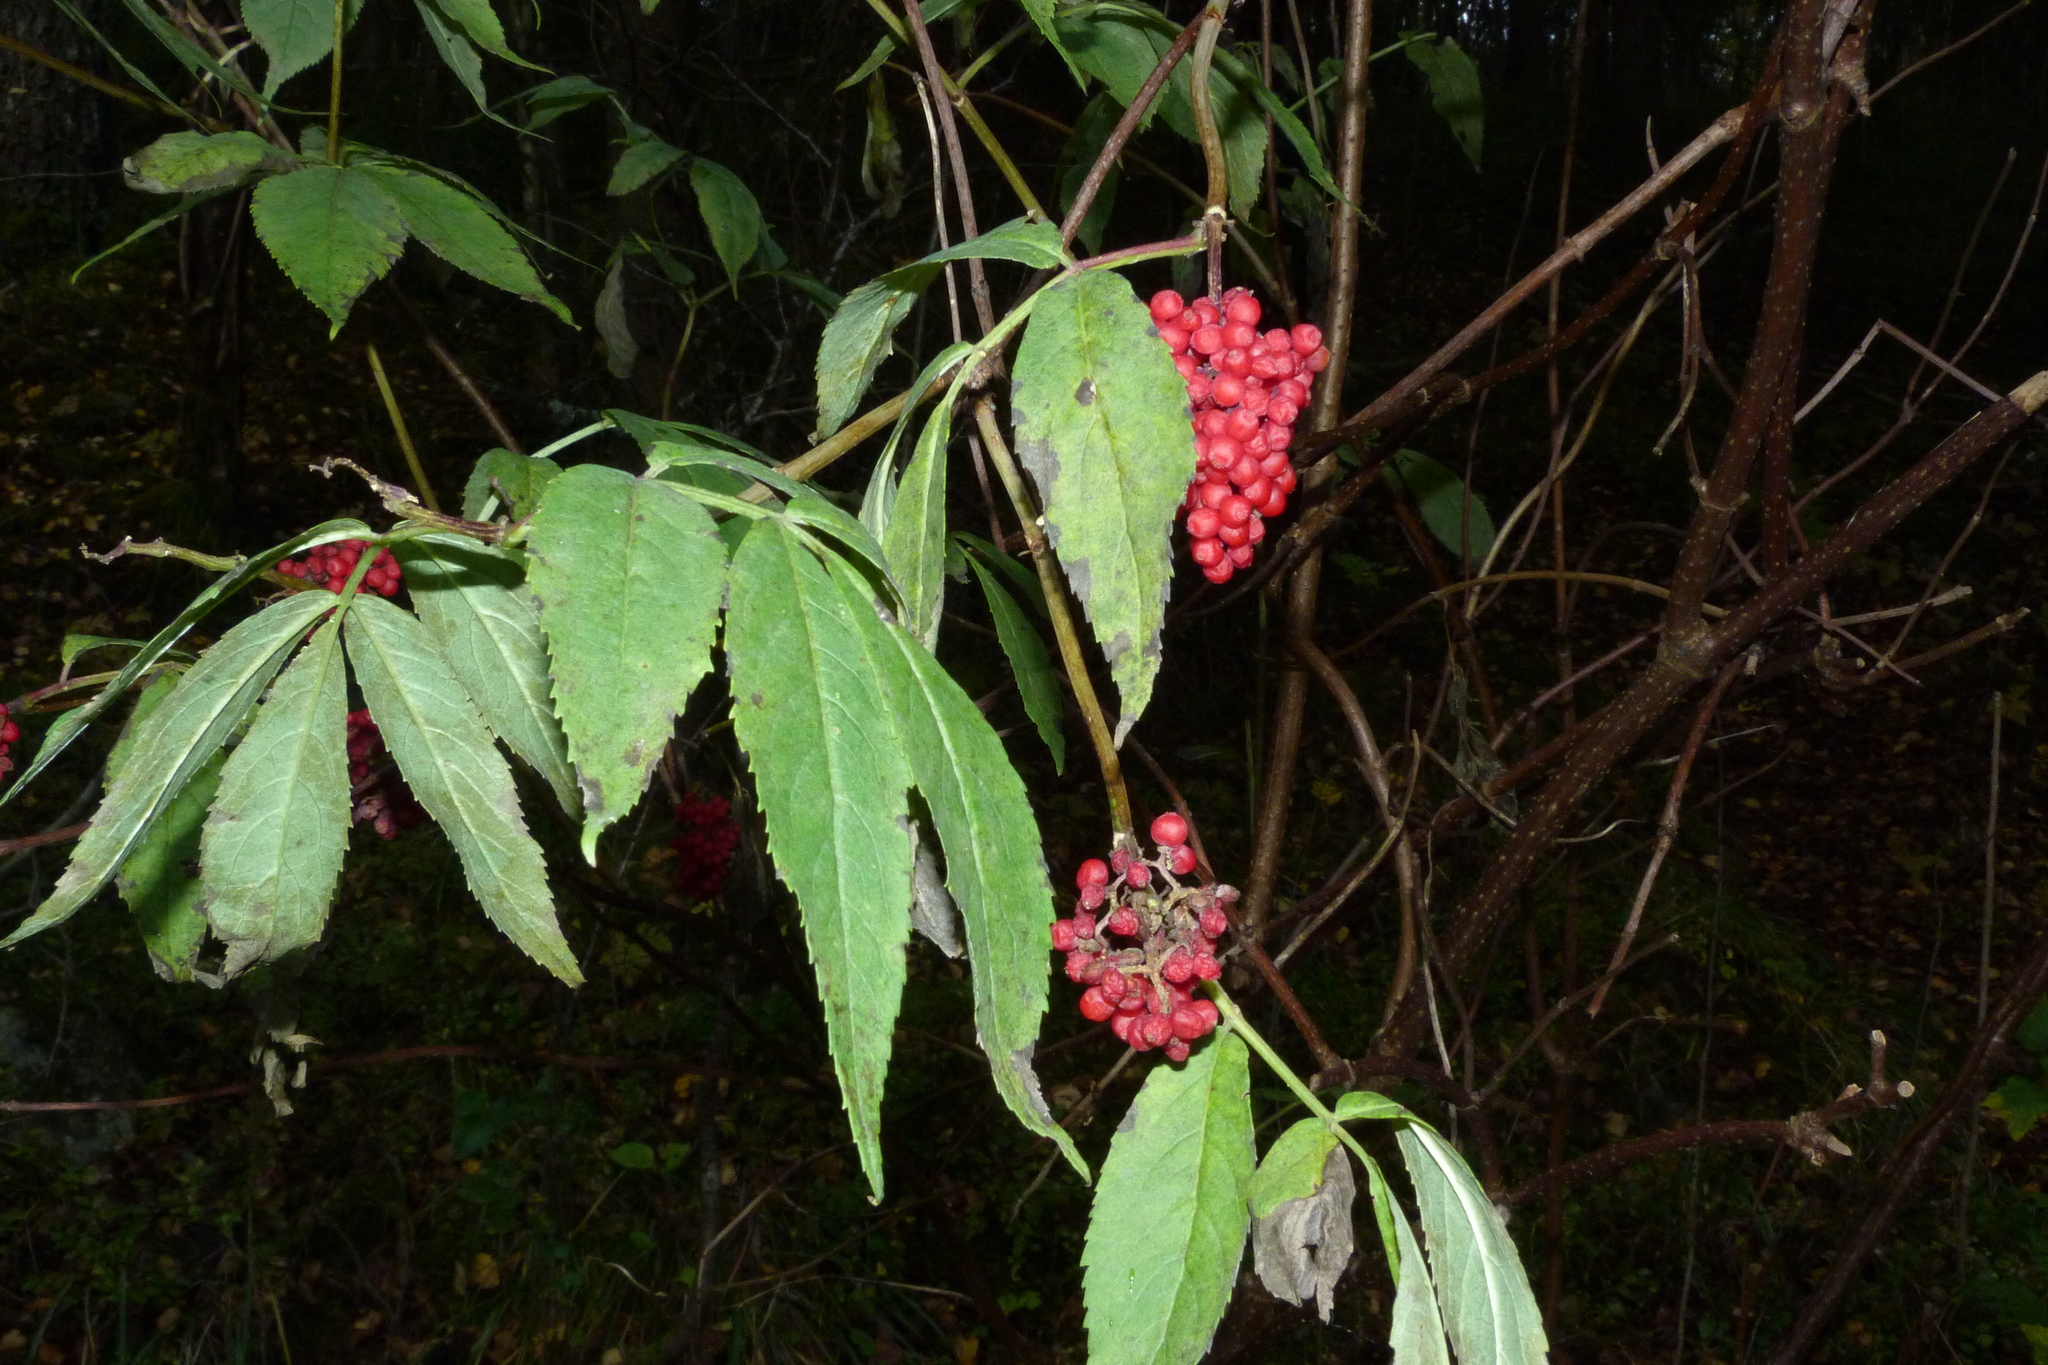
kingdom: Plantae
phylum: Tracheophyta
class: Magnoliopsida
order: Dipsacales
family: Viburnaceae
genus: Sambucus
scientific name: Sambucus racemosa
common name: Red-berried elder
